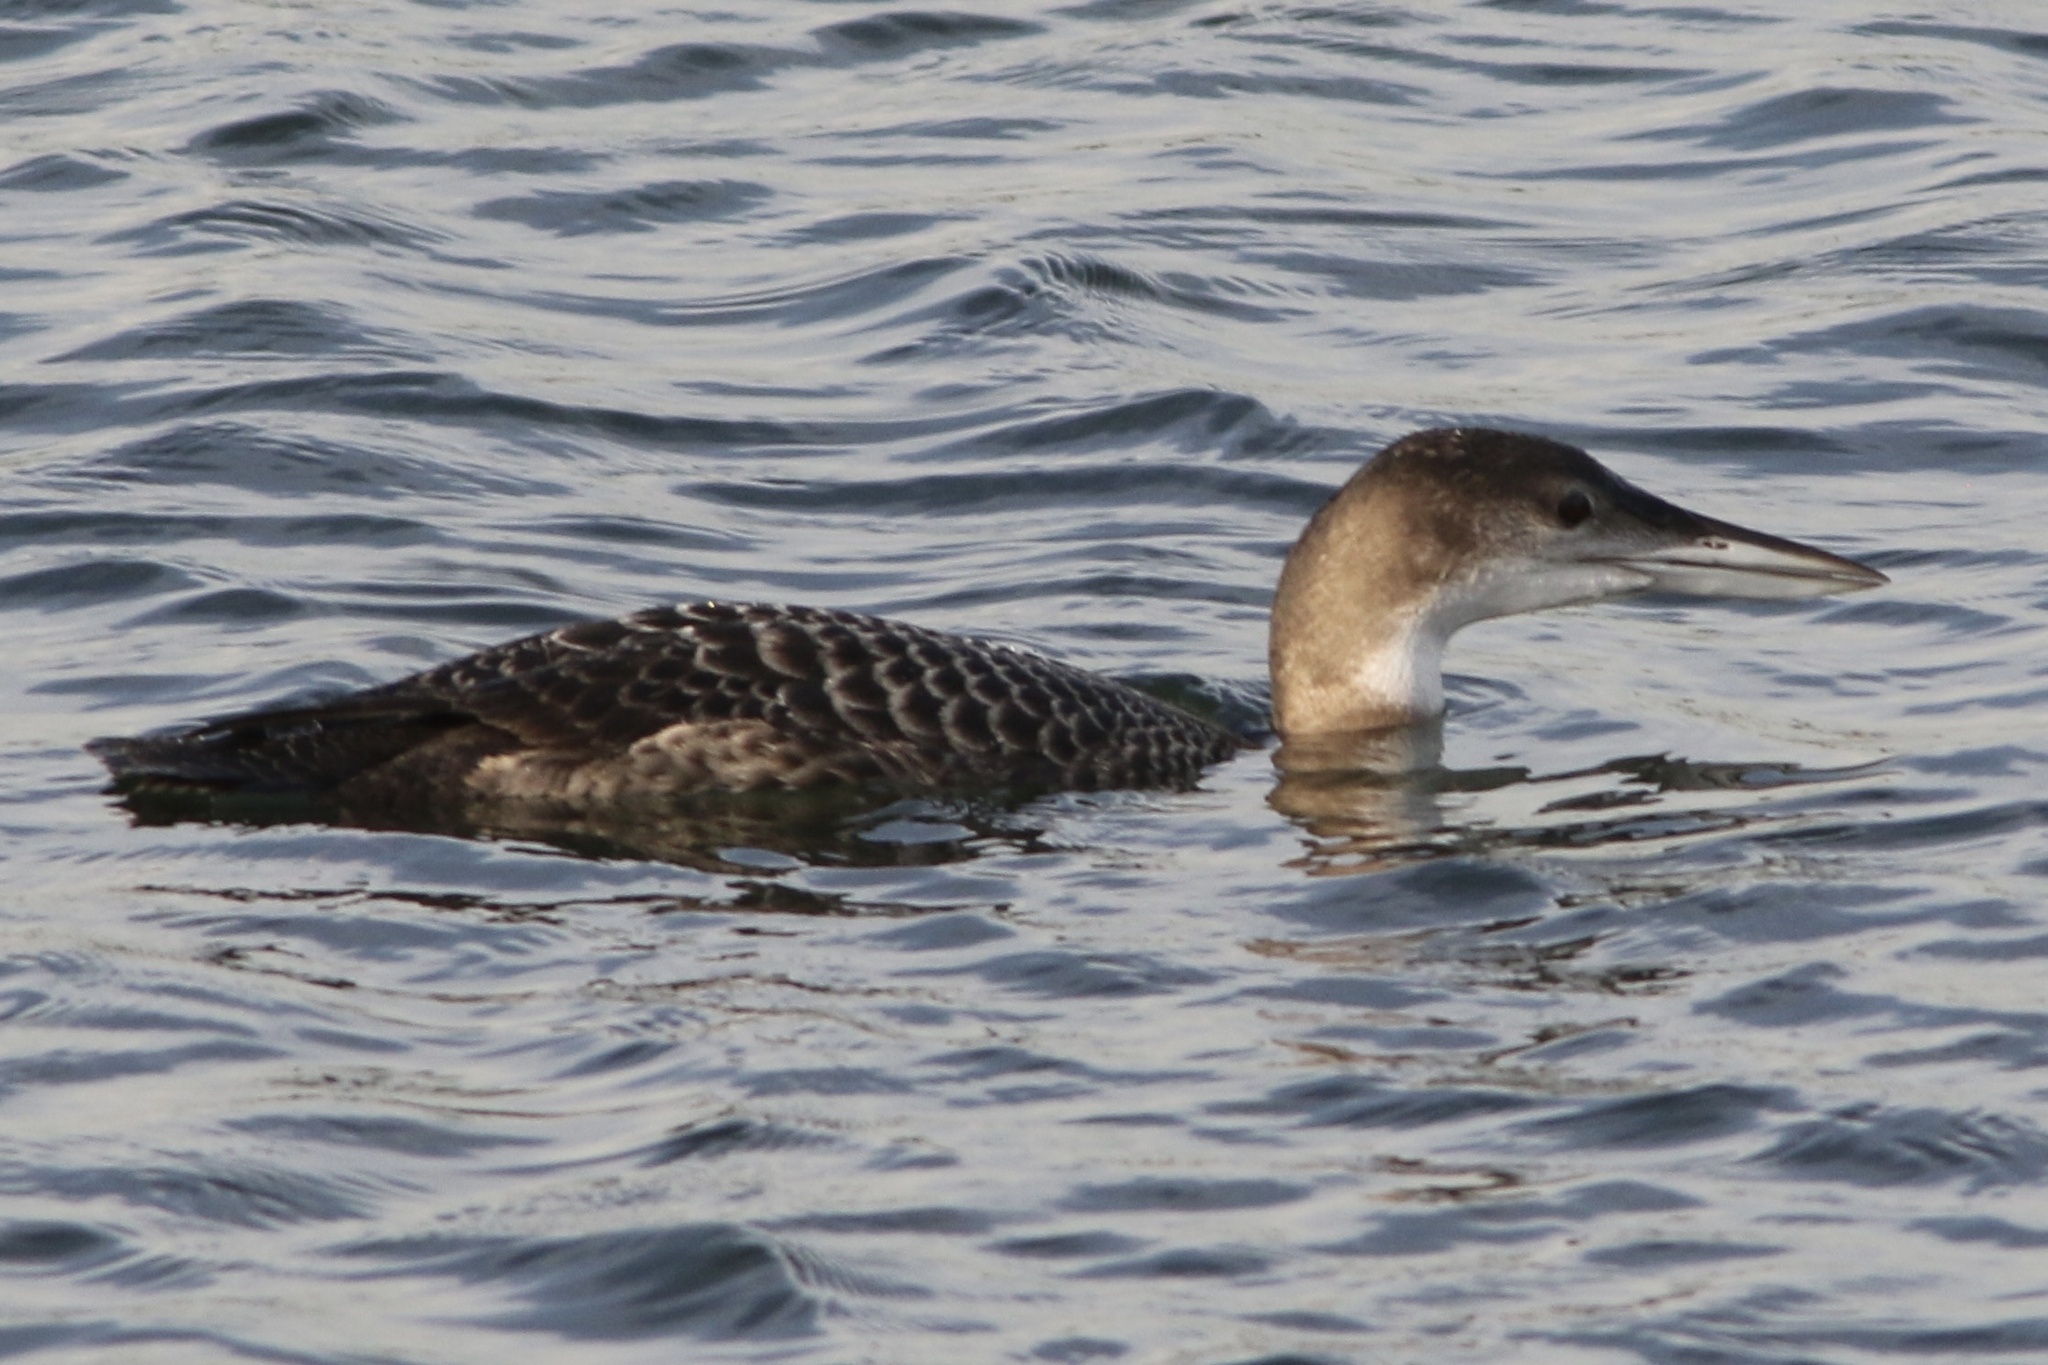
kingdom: Animalia
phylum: Chordata
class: Aves
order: Gaviiformes
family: Gaviidae
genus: Gavia
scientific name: Gavia immer
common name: Common loon
